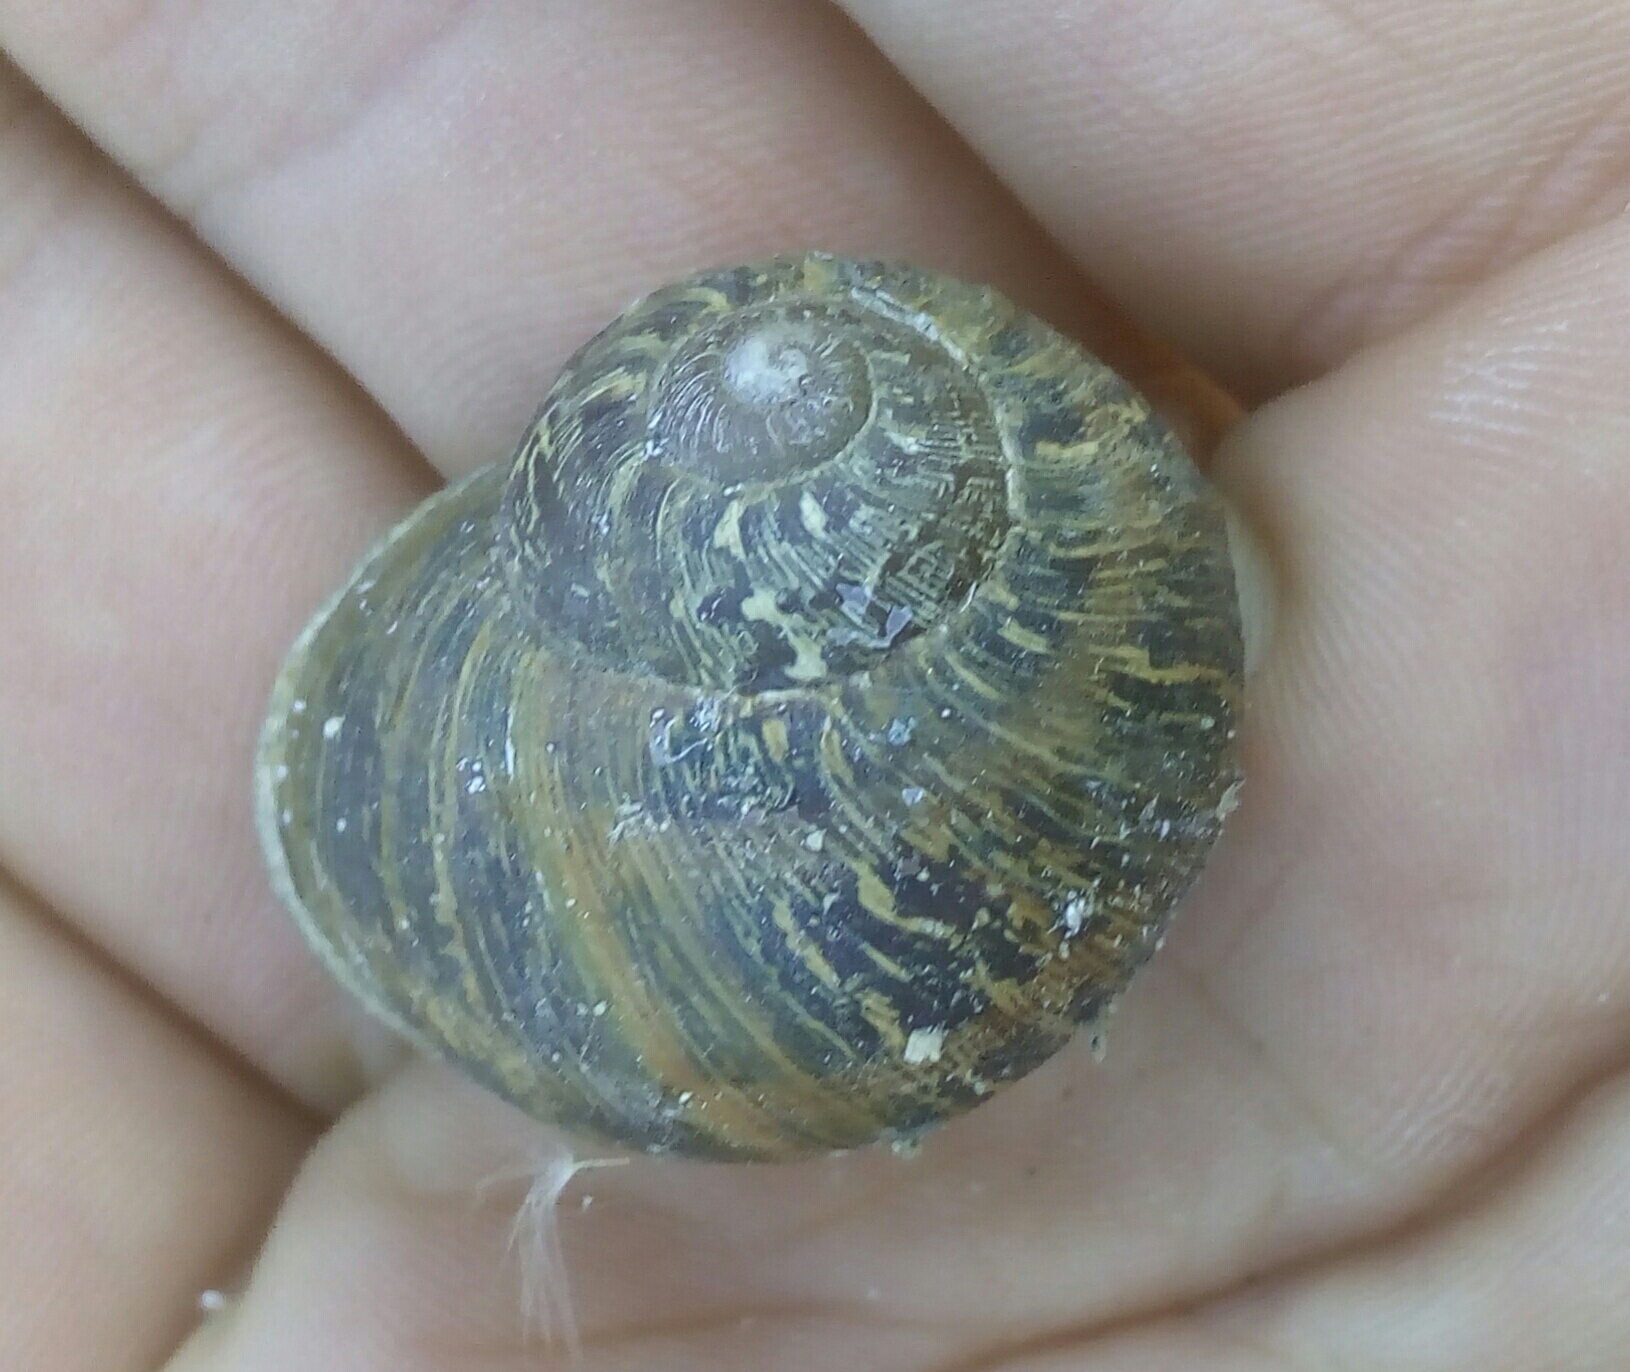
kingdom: Animalia
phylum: Mollusca
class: Gastropoda
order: Stylommatophora
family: Helicidae
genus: Cornu
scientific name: Cornu aspersum
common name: Brown garden snail
